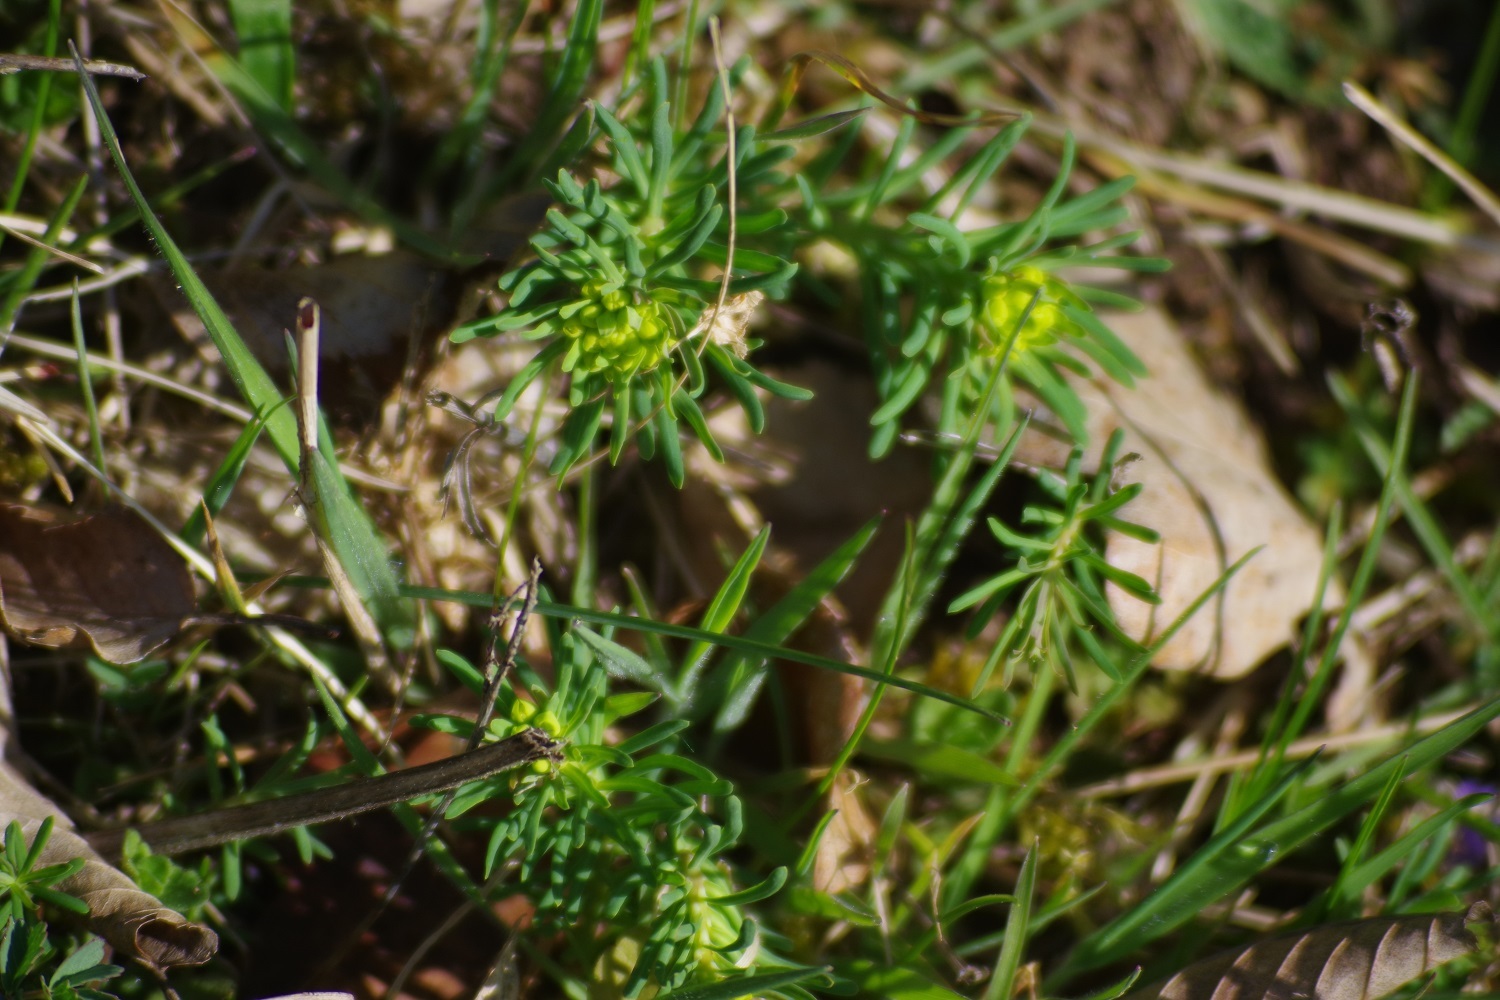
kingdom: Plantae
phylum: Tracheophyta
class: Magnoliopsida
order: Malpighiales
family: Euphorbiaceae
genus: Euphorbia
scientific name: Euphorbia cyparissias
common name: Cypress spurge
